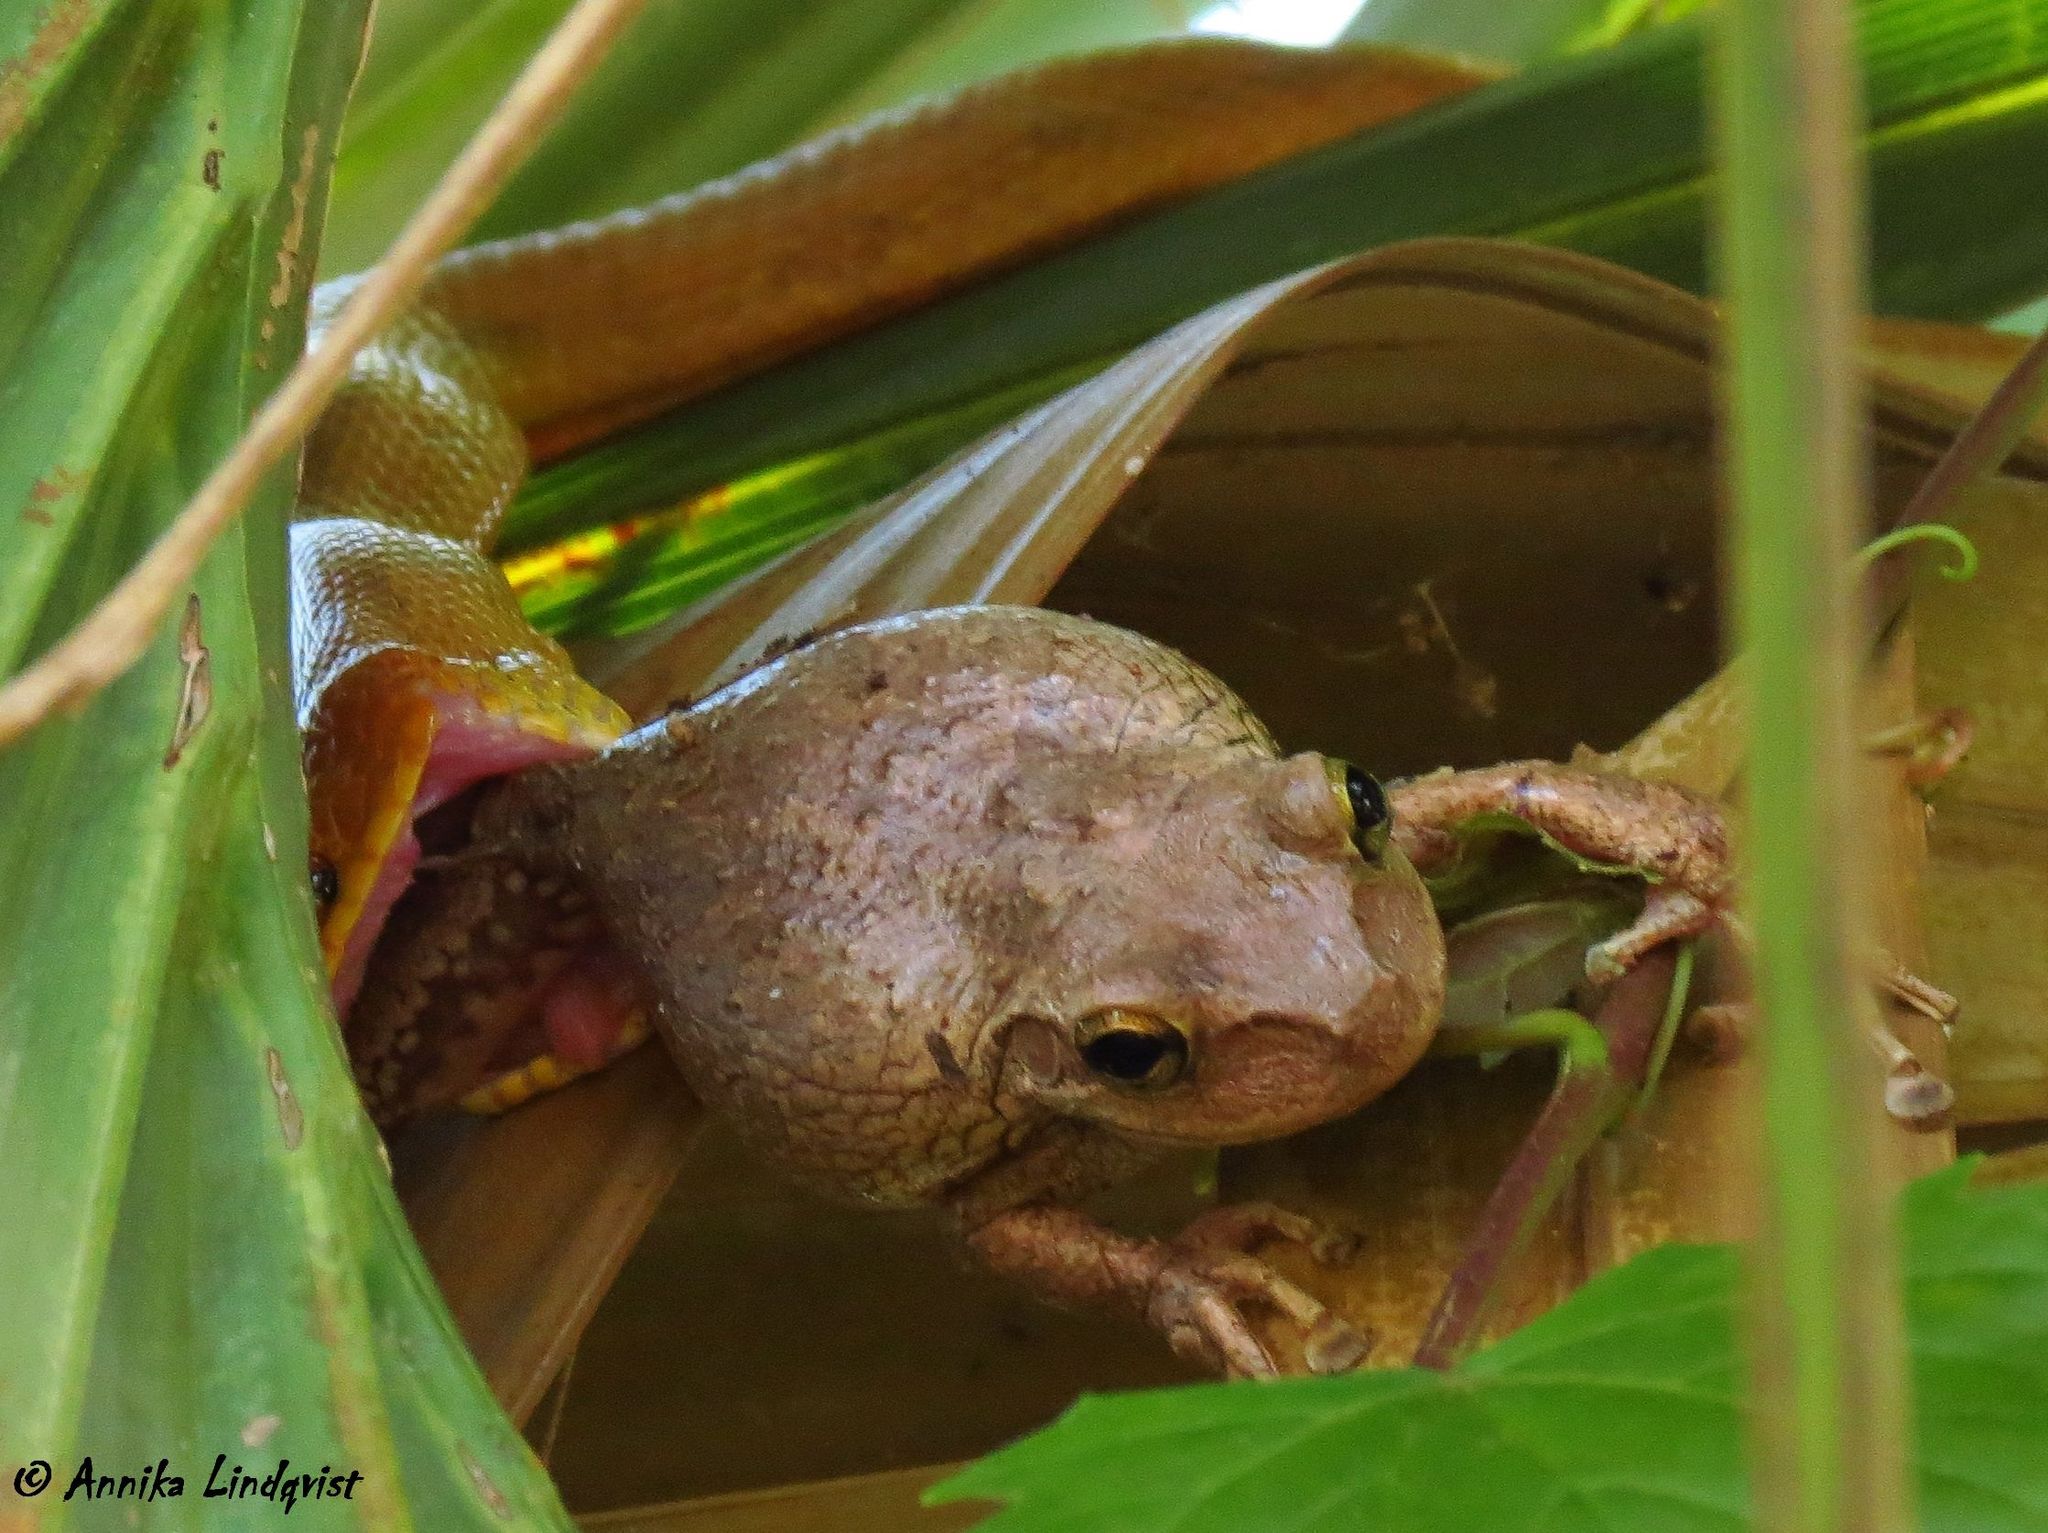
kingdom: Animalia
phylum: Chordata
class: Amphibia
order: Anura
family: Hylidae
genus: Osteopilus
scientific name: Osteopilus septentrionalis
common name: Cuban treefrog
